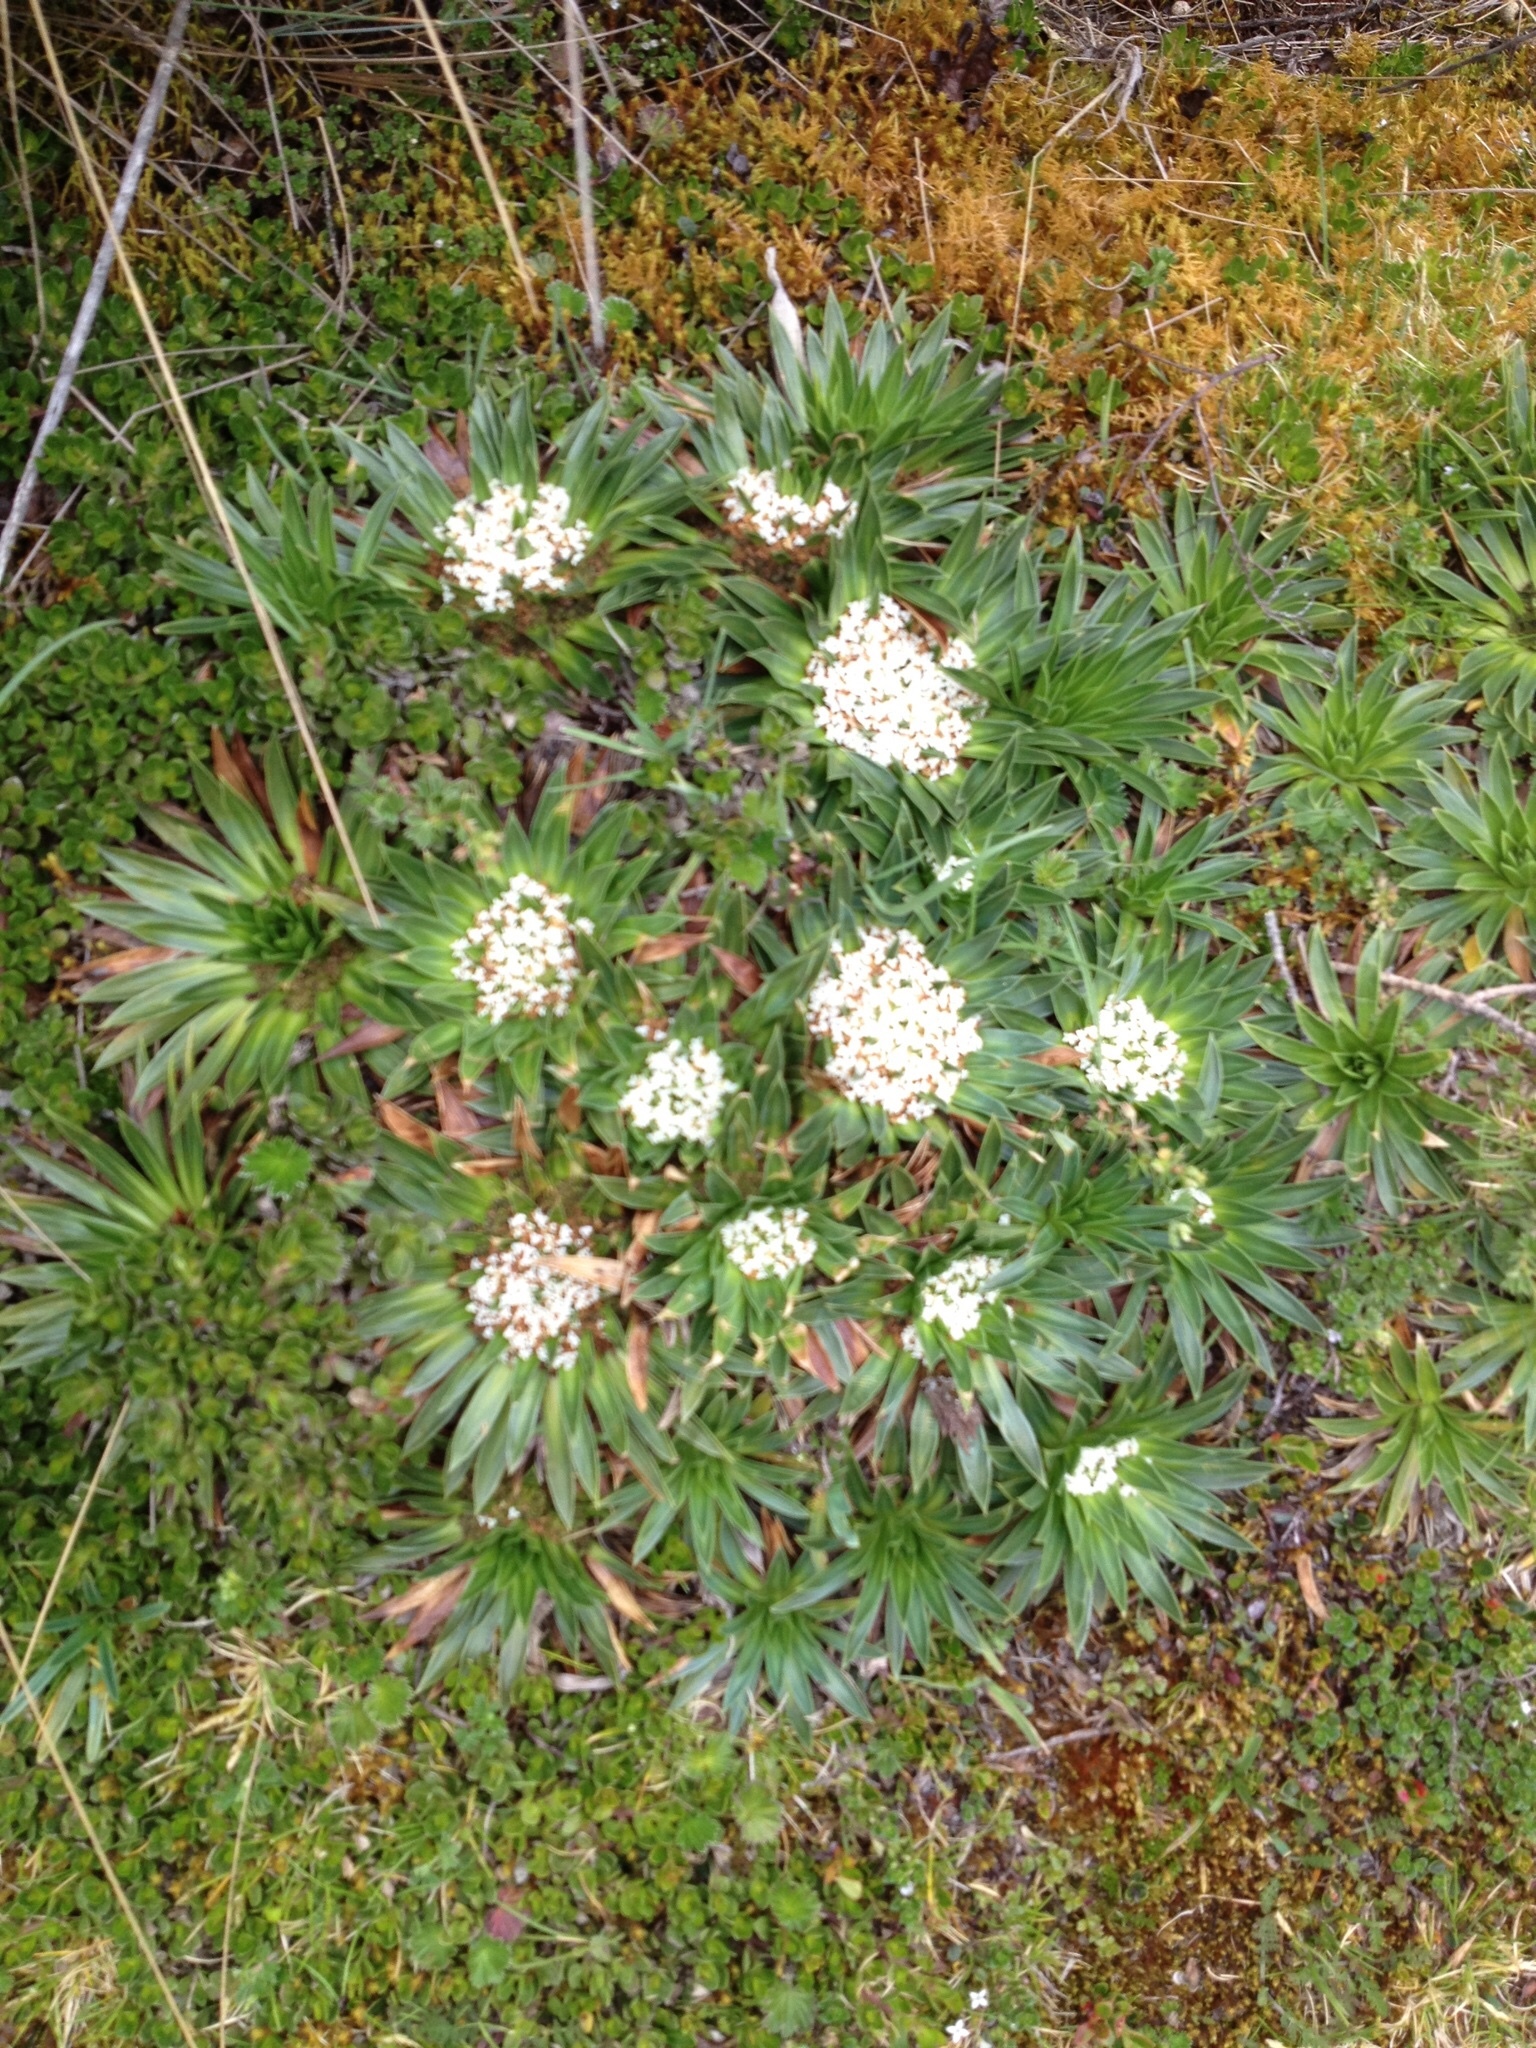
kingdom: Plantae
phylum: Tracheophyta
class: Magnoliopsida
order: Dipsacales
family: Caprifoliaceae
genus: Valeriana
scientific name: Valeriana rigida
